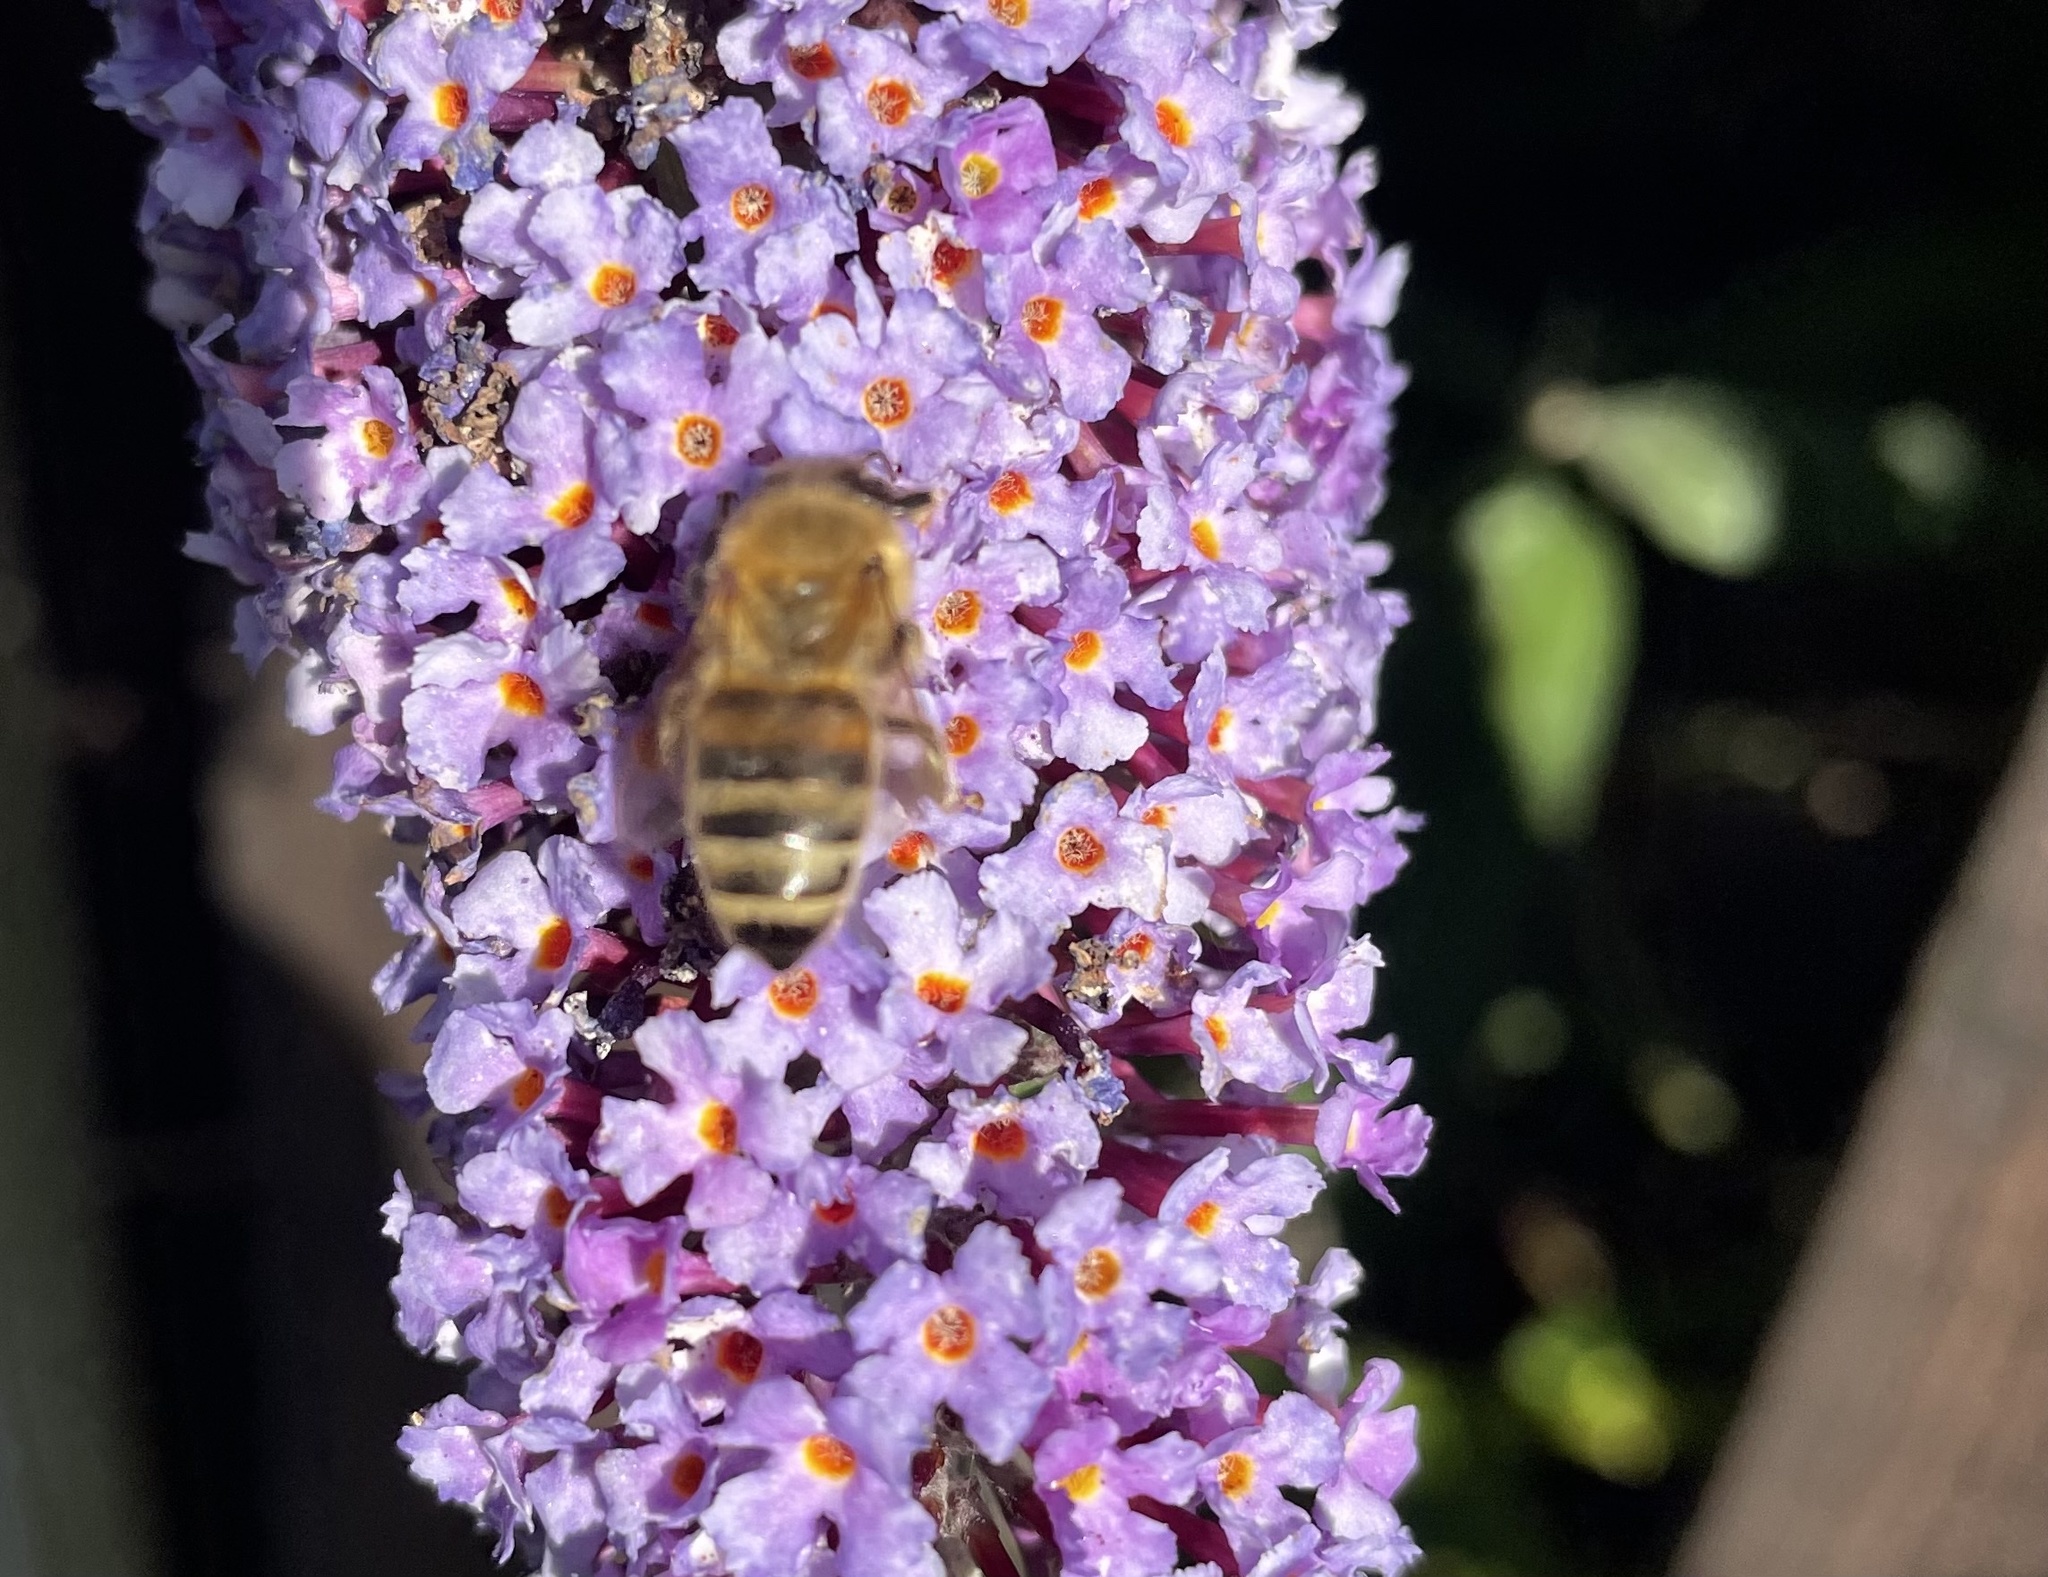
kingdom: Animalia
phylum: Arthropoda
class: Insecta
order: Hymenoptera
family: Apidae
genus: Apis
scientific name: Apis mellifera
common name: Honey bee
